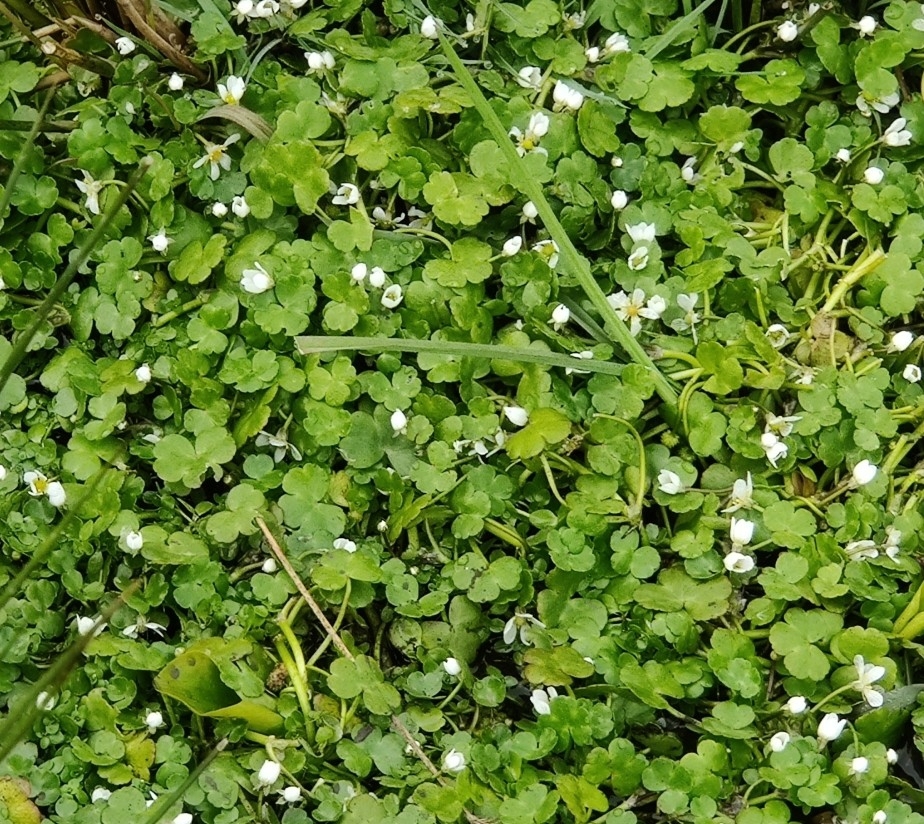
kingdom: Plantae
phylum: Tracheophyta
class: Magnoliopsida
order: Ranunculales
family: Ranunculaceae
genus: Ranunculus
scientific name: Ranunculus omiophyllus
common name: Round-leaved crowfoot
